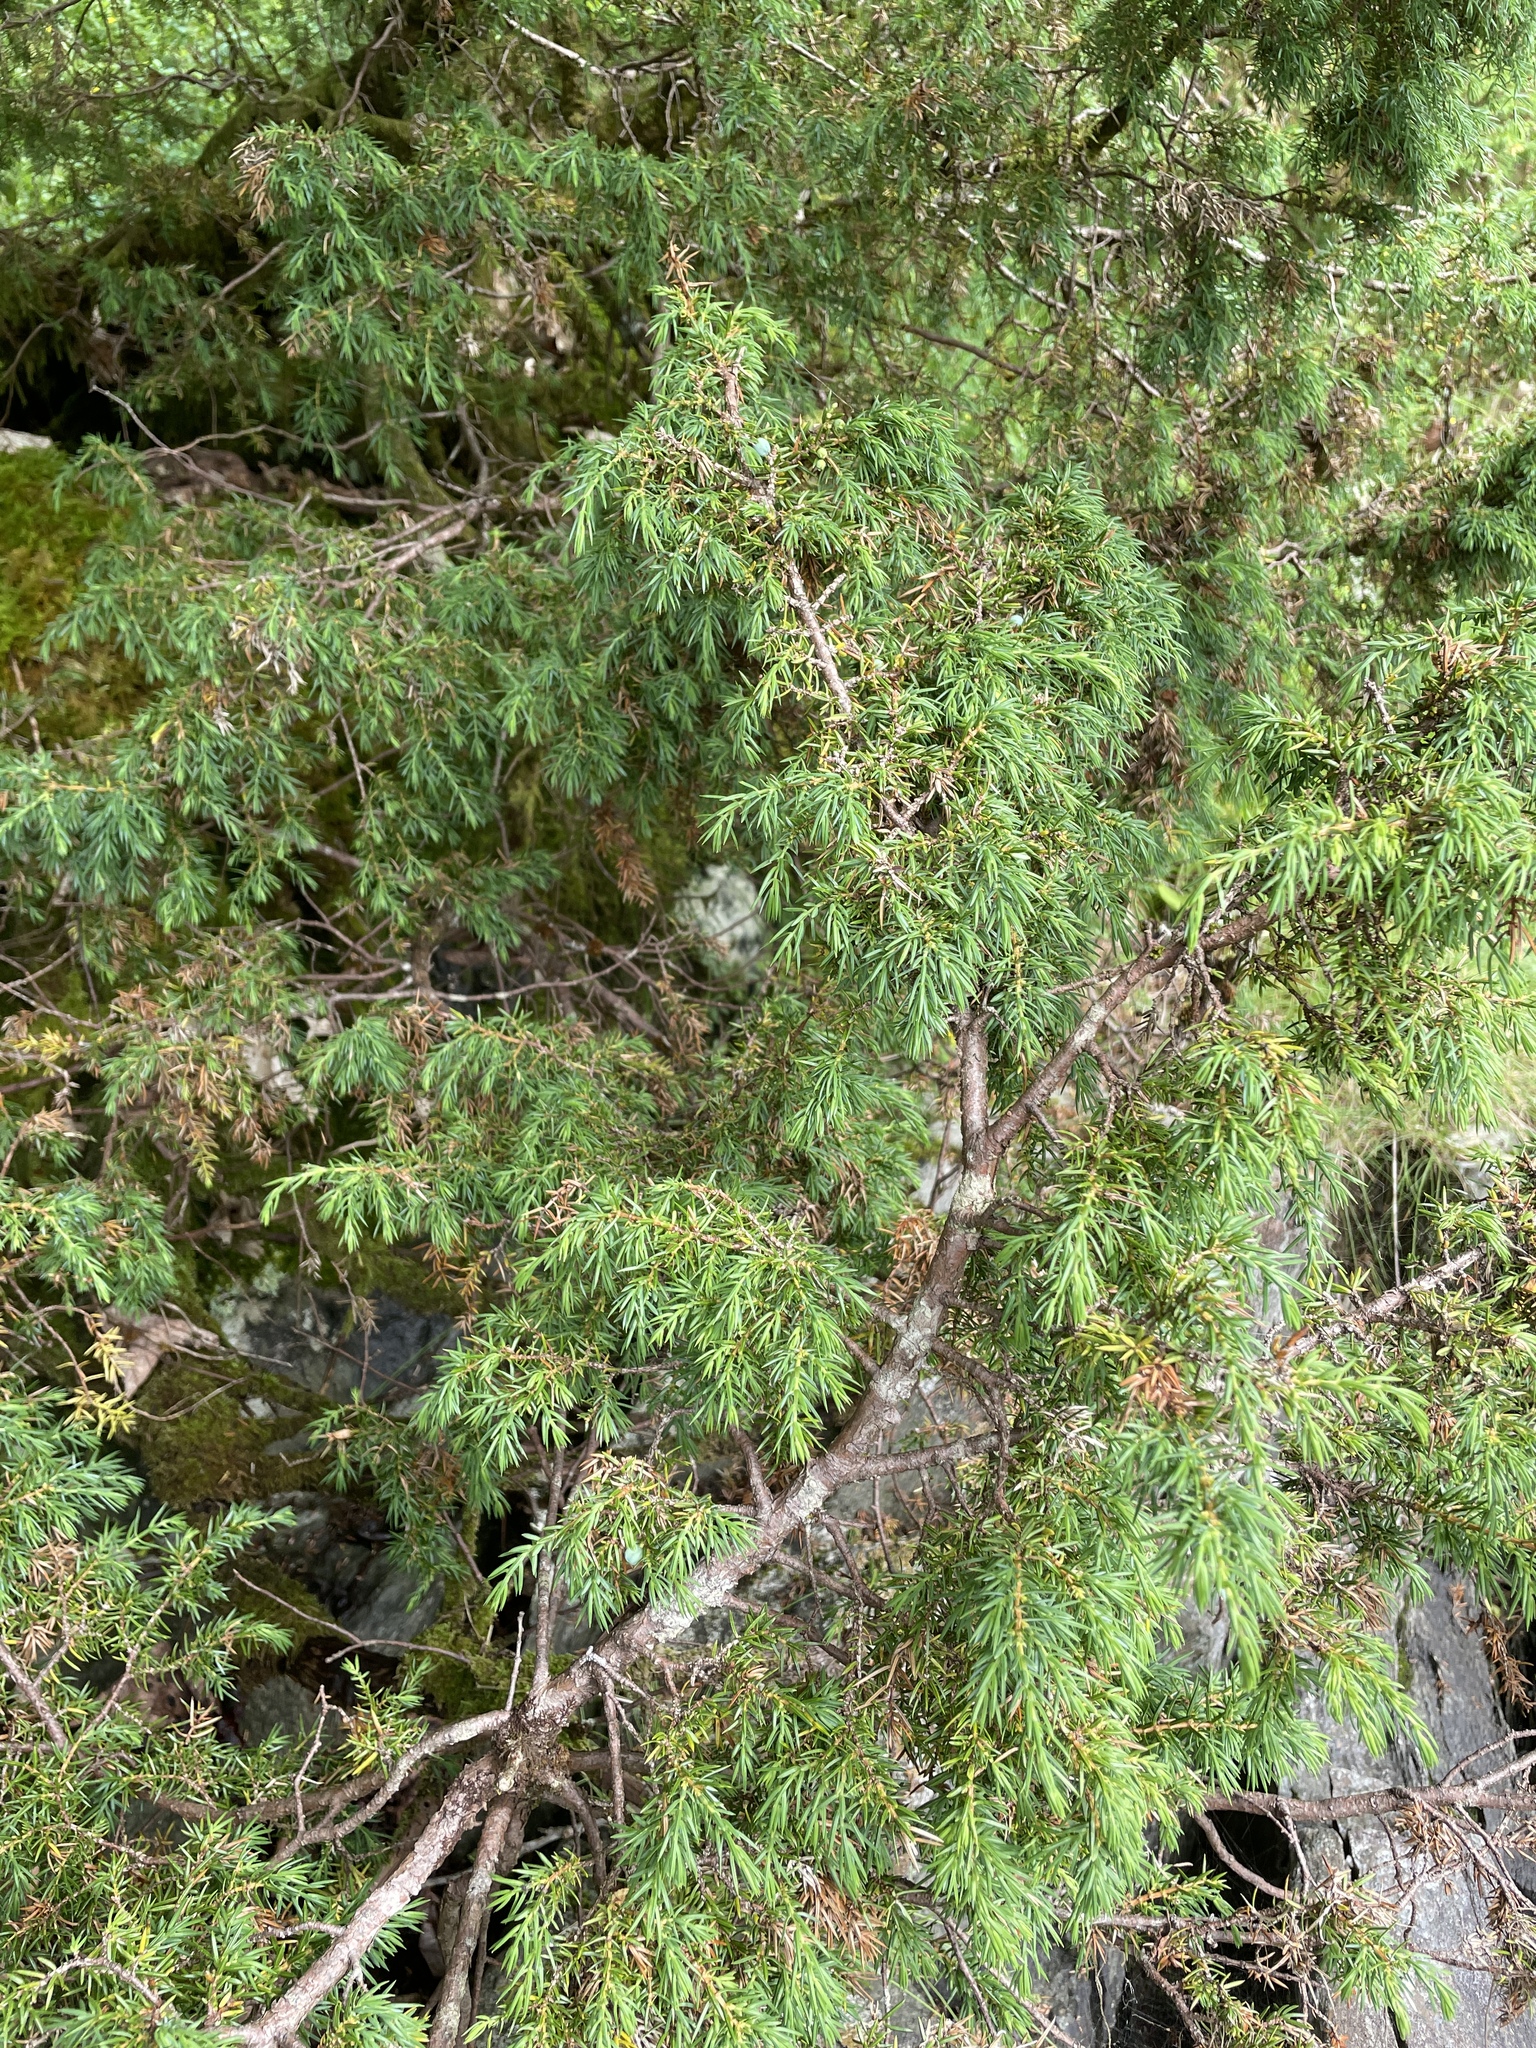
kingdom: Plantae
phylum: Tracheophyta
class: Pinopsida
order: Pinales
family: Cupressaceae
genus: Juniperus
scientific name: Juniperus communis
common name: Common juniper
